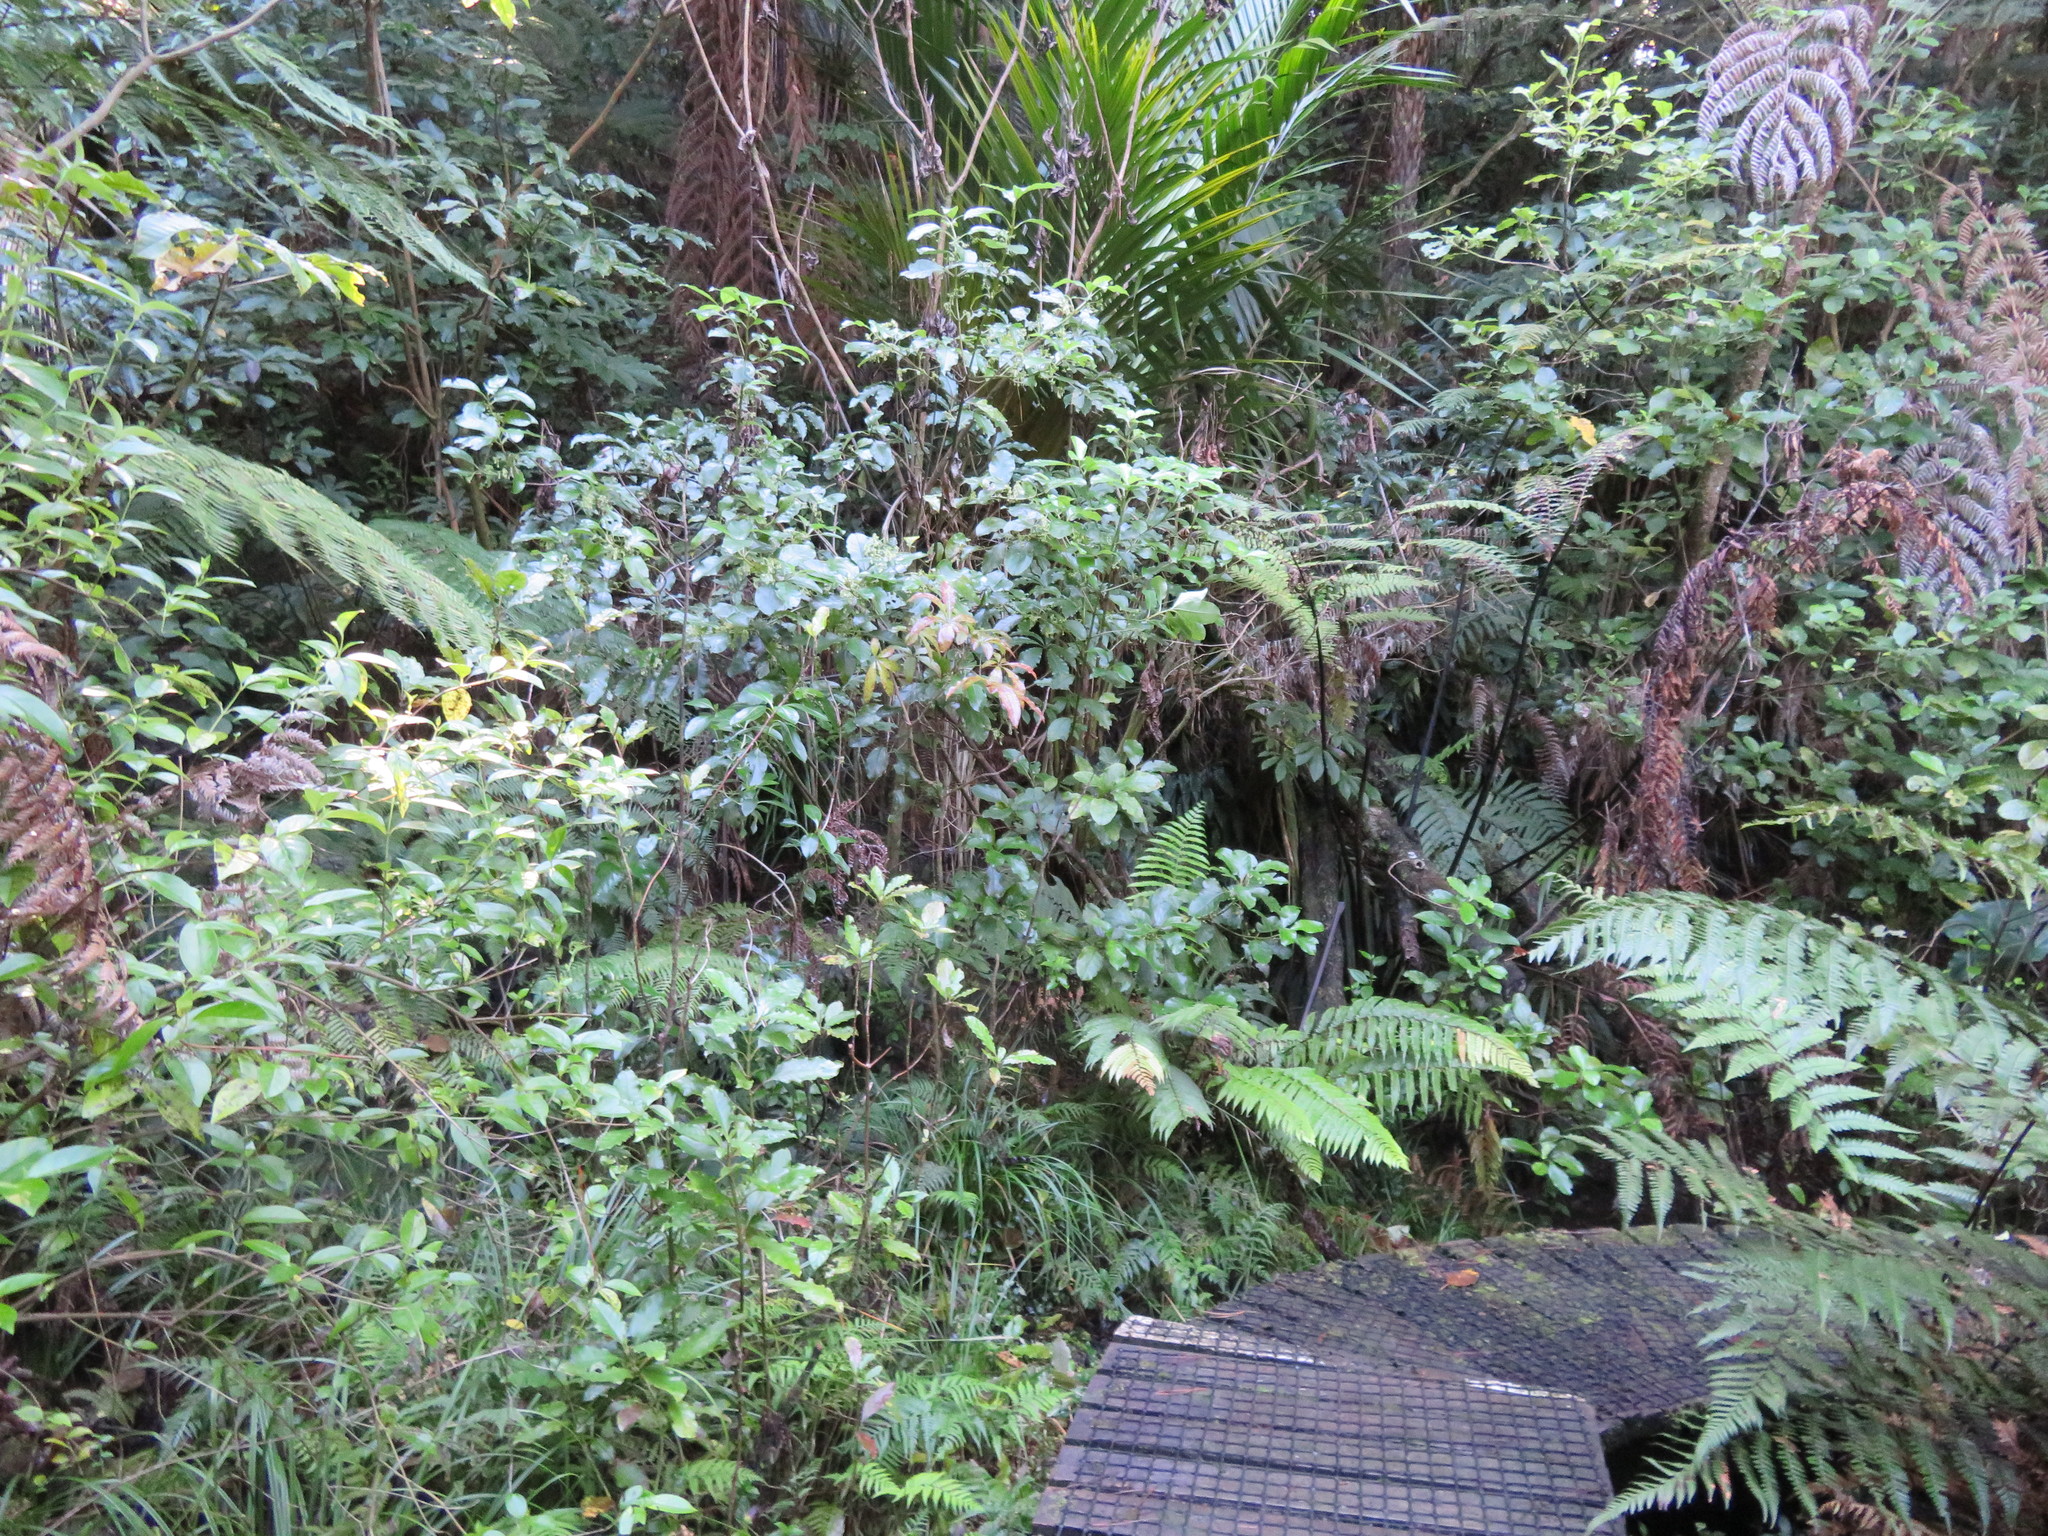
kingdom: Plantae
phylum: Tracheophyta
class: Magnoliopsida
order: Gentianales
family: Loganiaceae
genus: Geniostoma
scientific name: Geniostoma ligustrifolium
